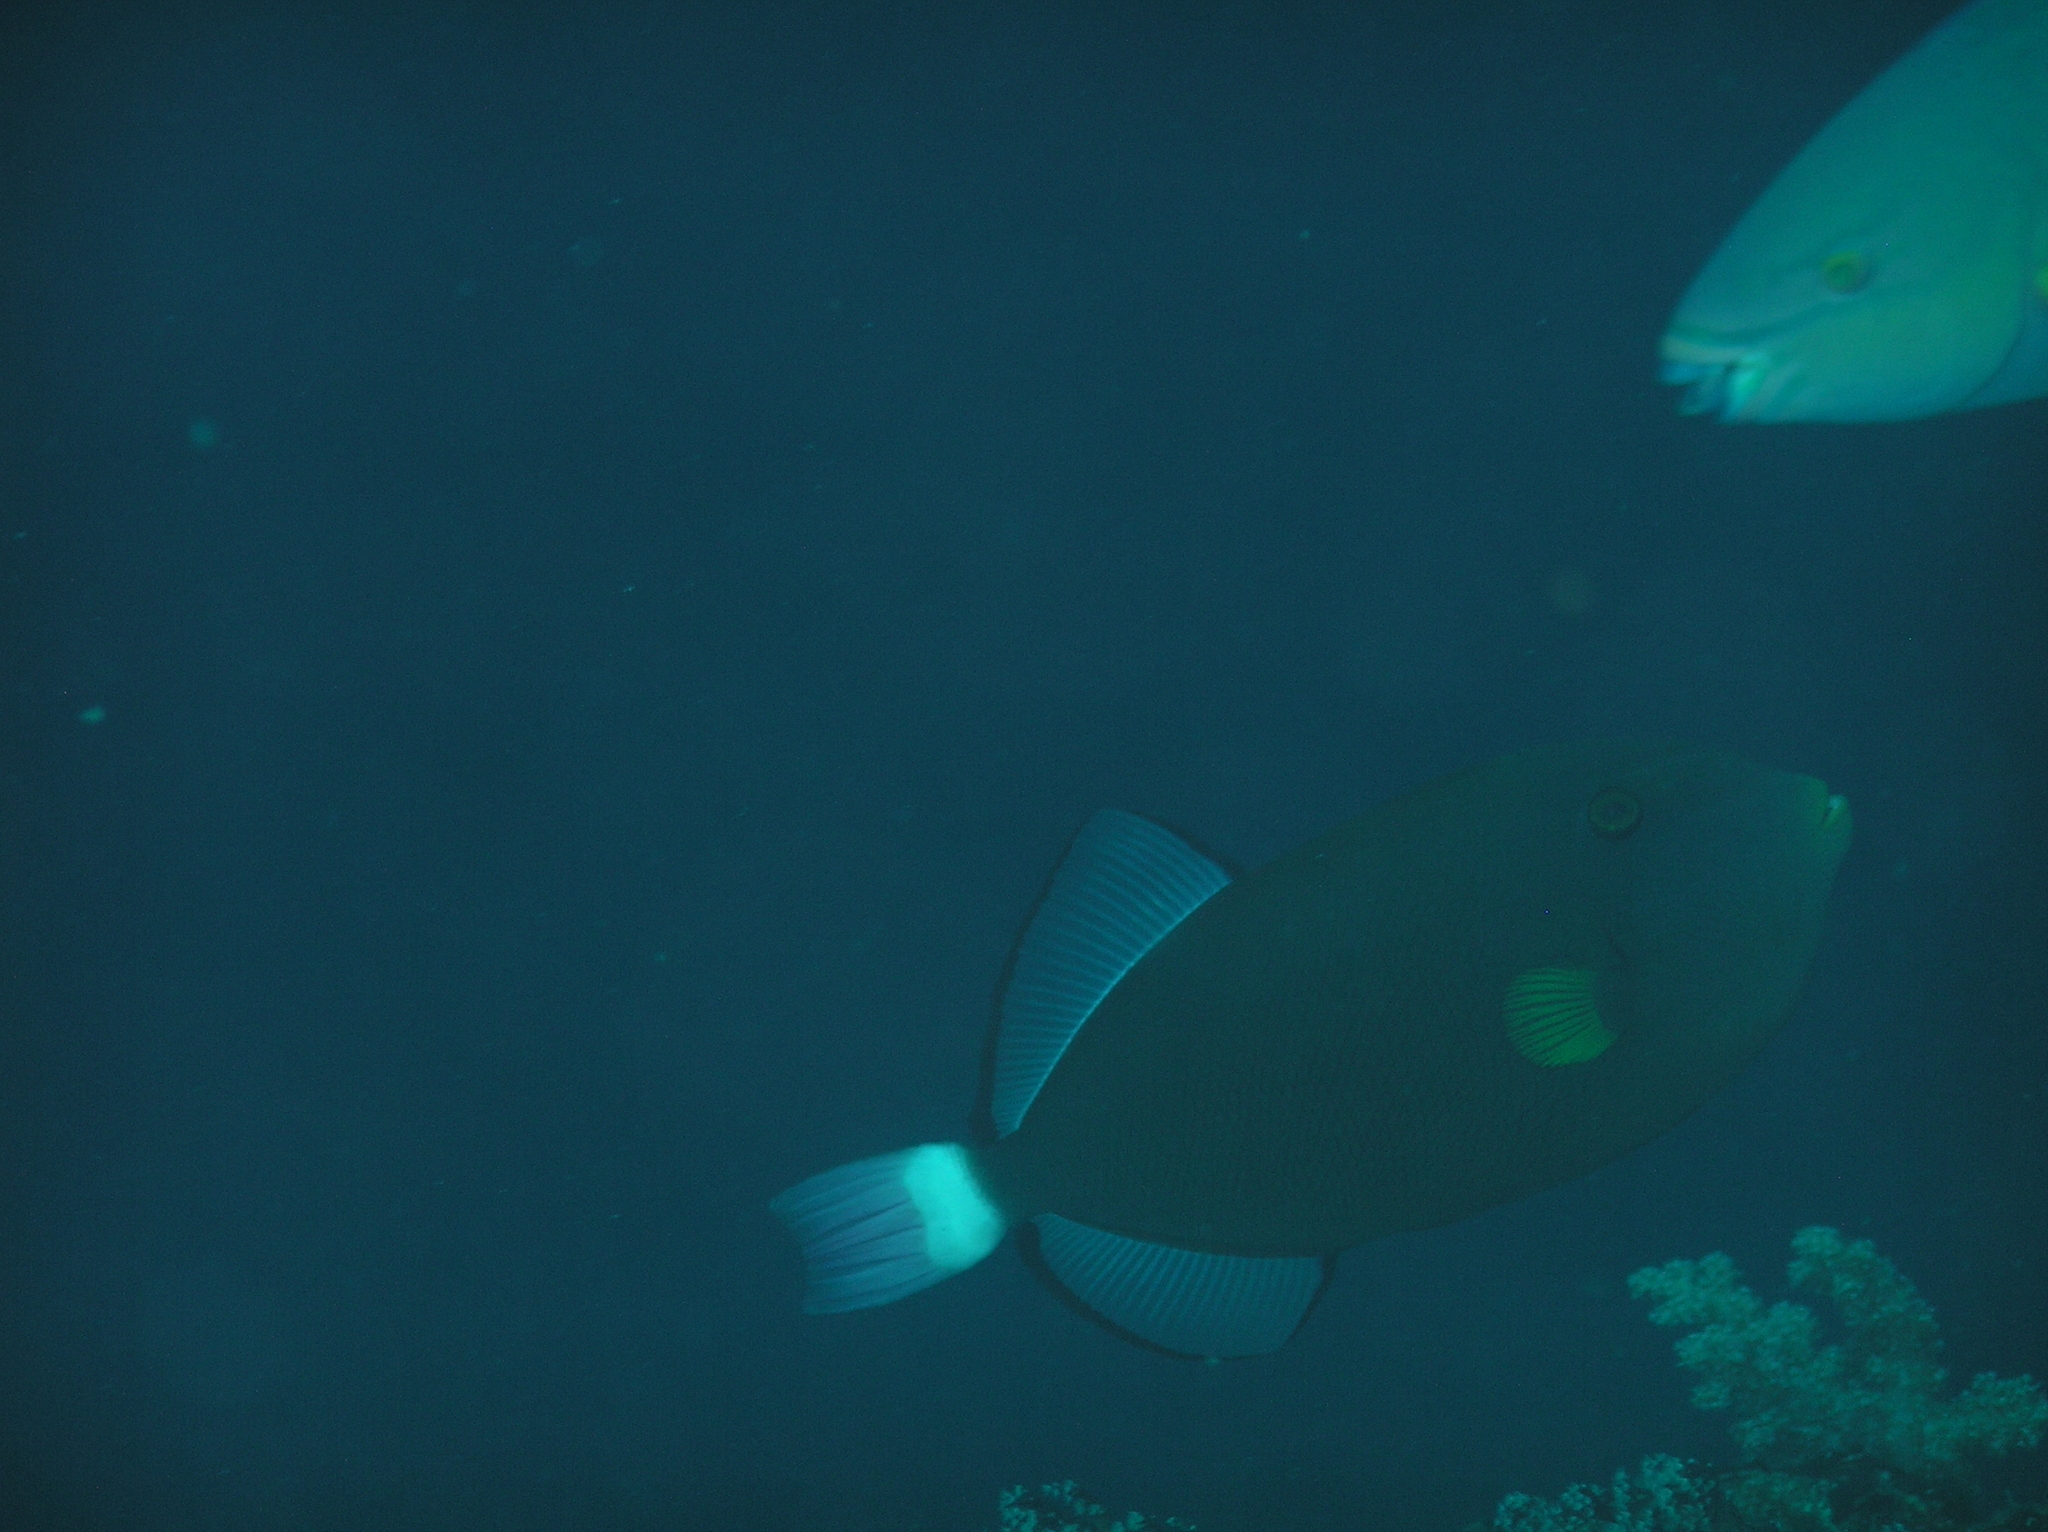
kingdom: Animalia
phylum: Chordata
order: Tetraodontiformes
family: Balistidae
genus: Melichthys
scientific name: Melichthys vidua
